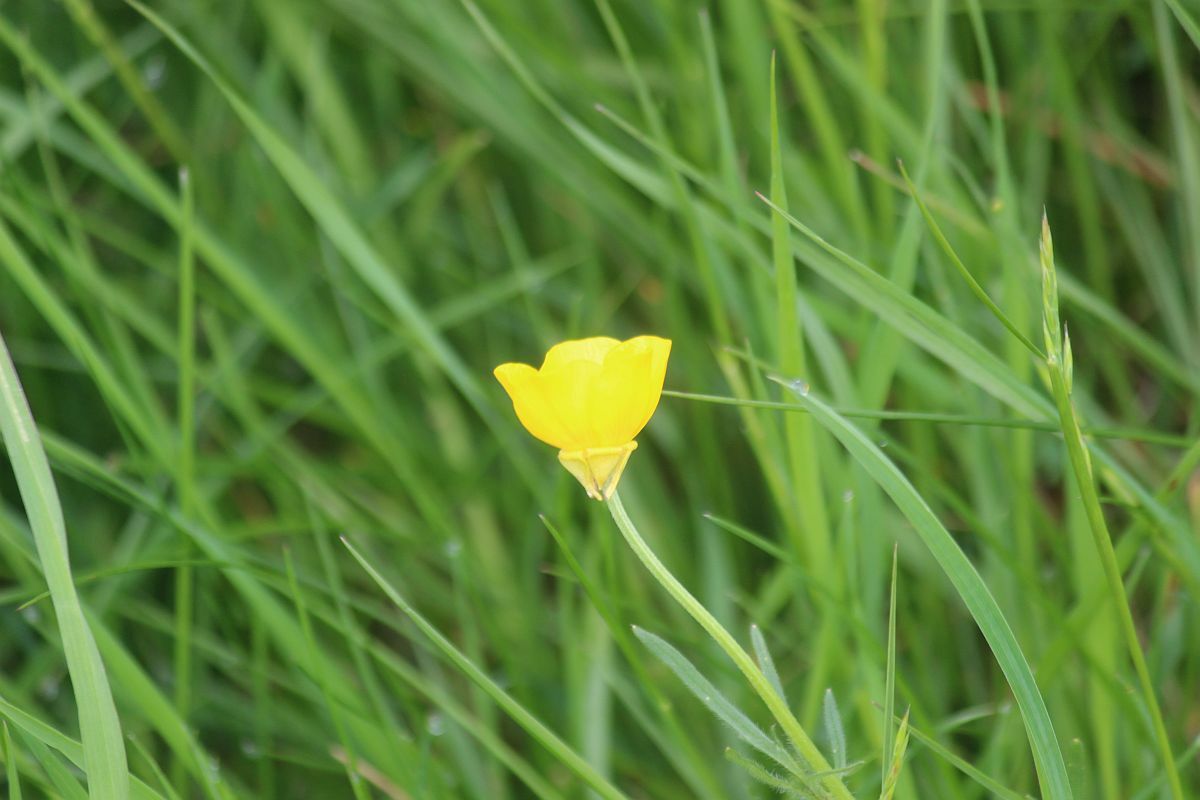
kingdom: Plantae
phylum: Tracheophyta
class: Magnoliopsida
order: Ranunculales
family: Ranunculaceae
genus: Ranunculus
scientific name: Ranunculus bulbosus
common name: Bulbous buttercup
